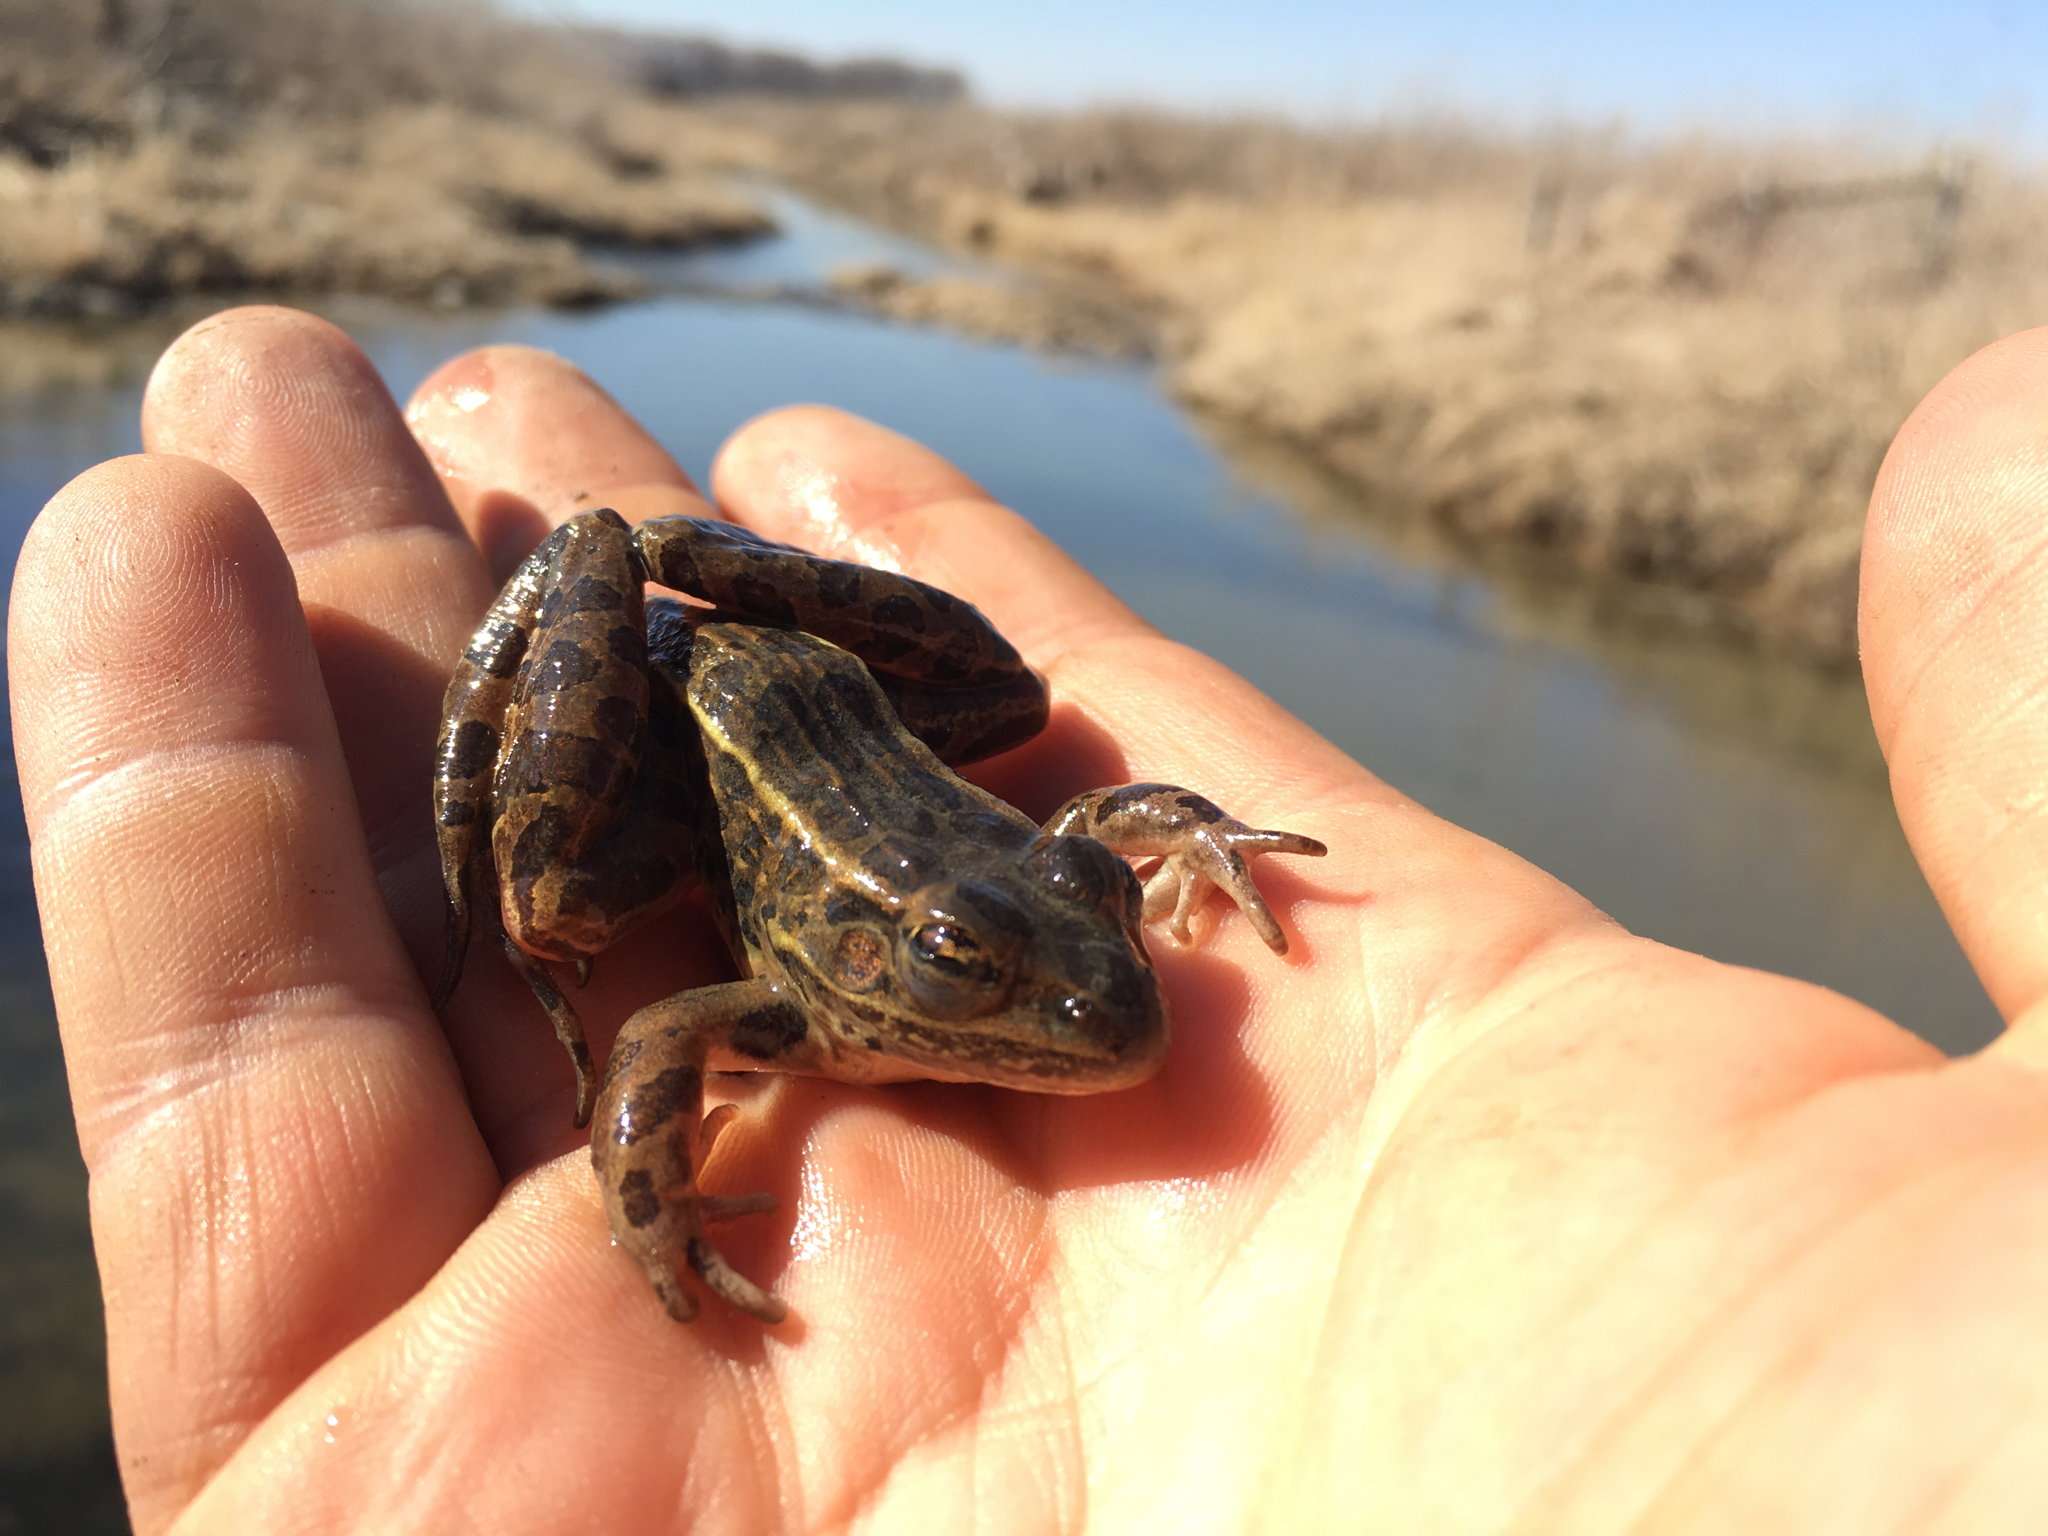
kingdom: Animalia
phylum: Chordata
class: Amphibia
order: Anura
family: Ranidae
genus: Lithobates
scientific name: Lithobates pipiens
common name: Northern leopard frog
